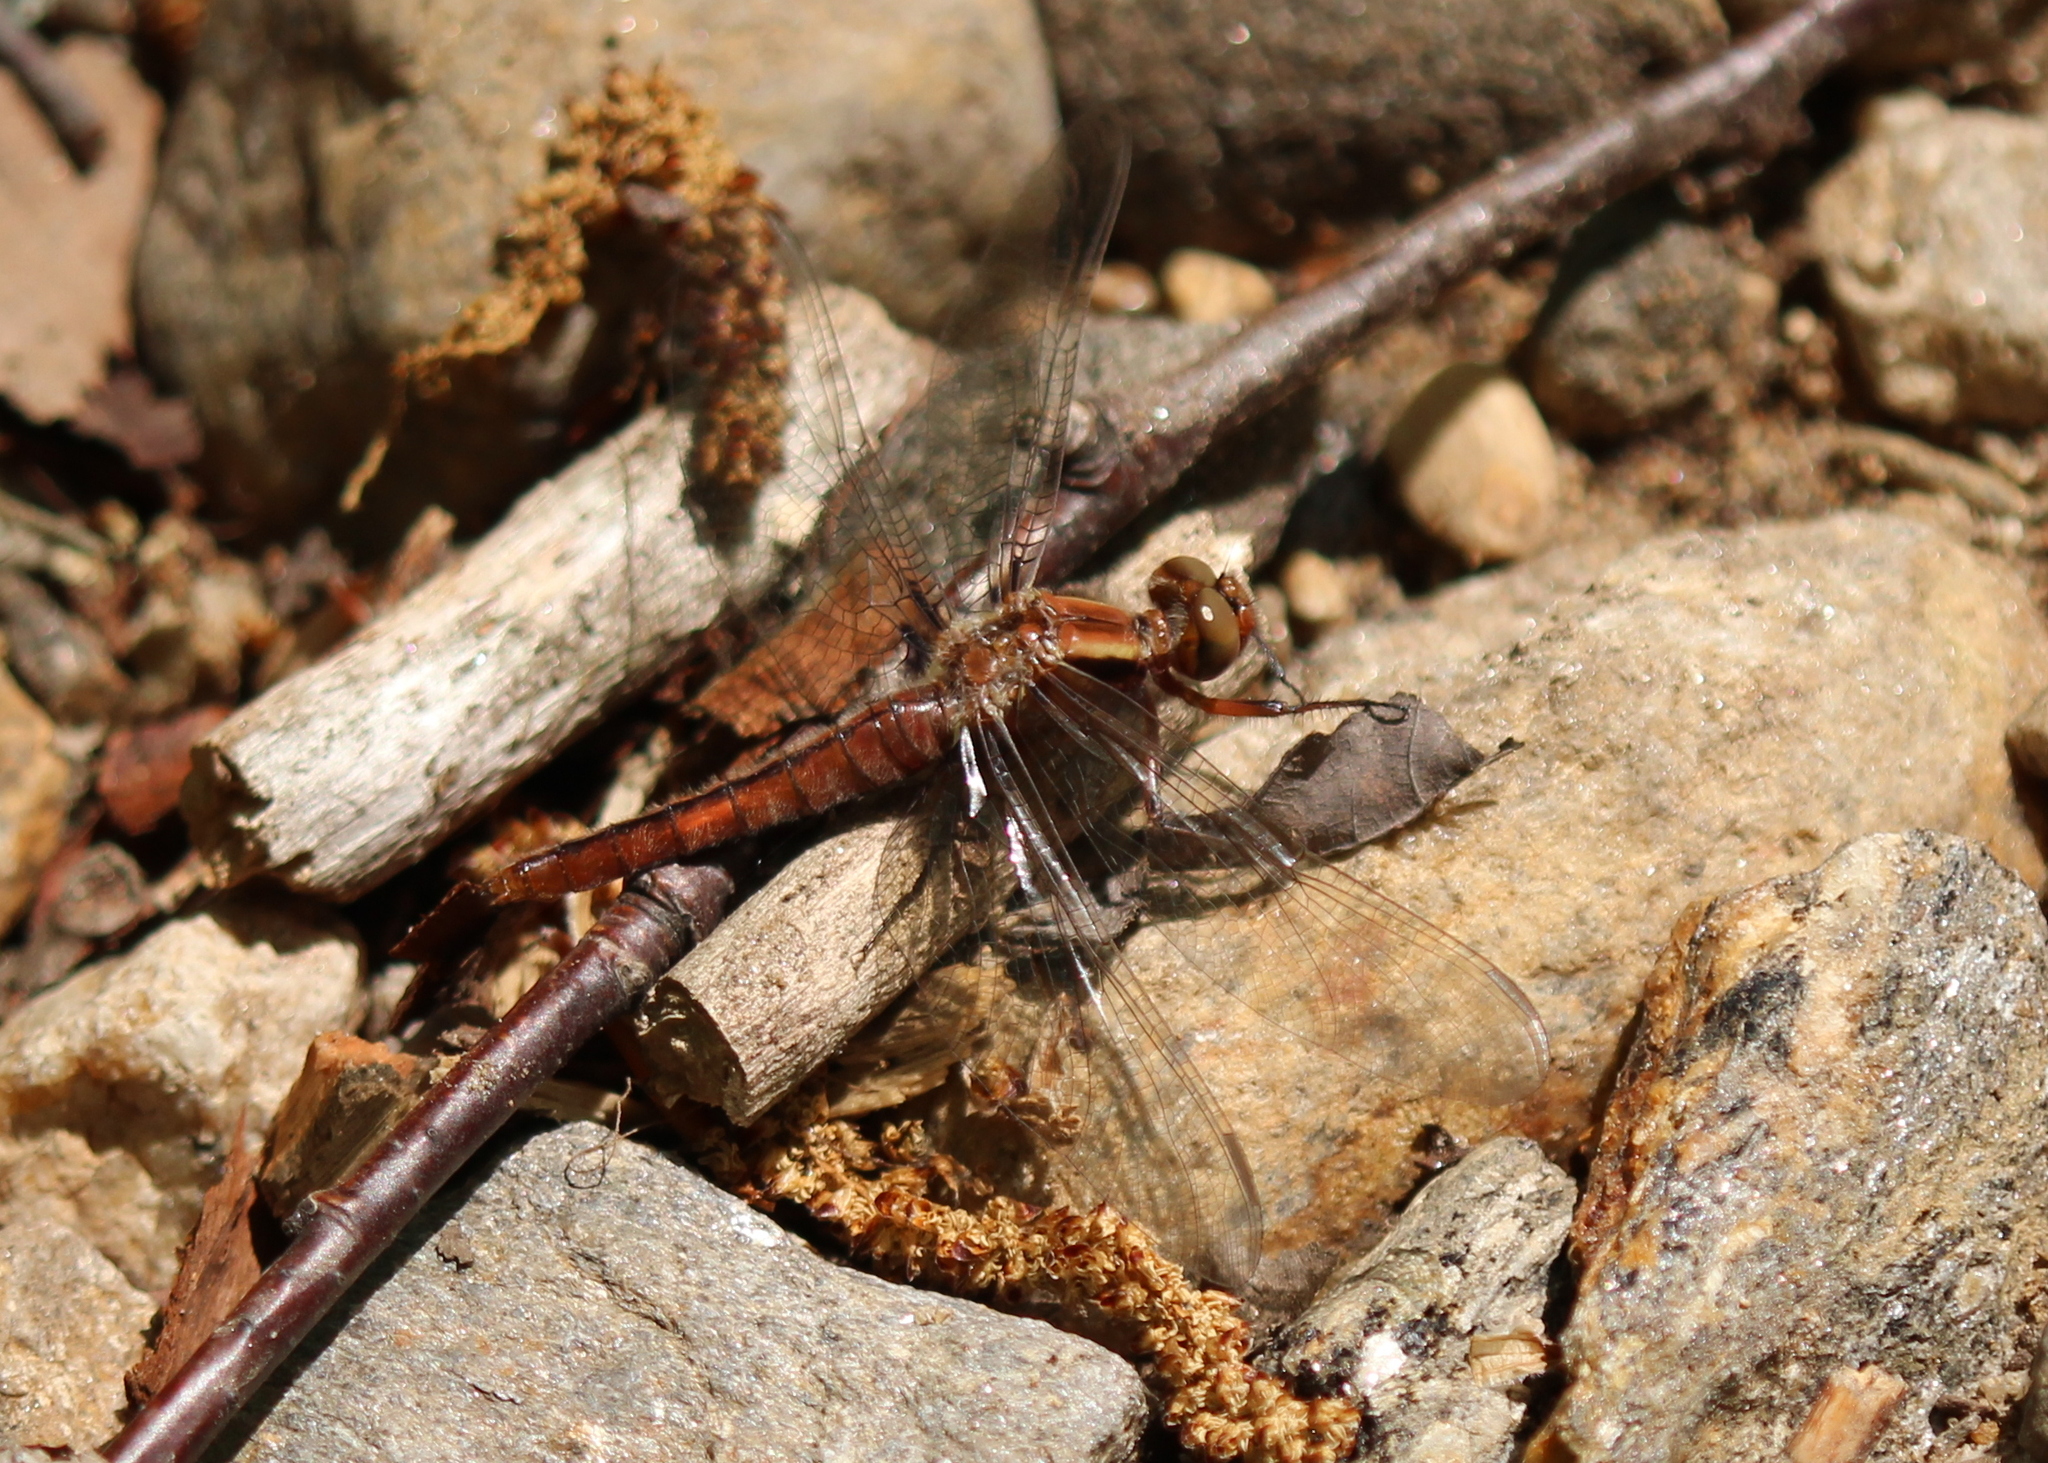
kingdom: Animalia
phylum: Arthropoda
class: Insecta
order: Odonata
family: Libellulidae
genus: Ladona
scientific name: Ladona julia
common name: Chalk-fronted corporal
